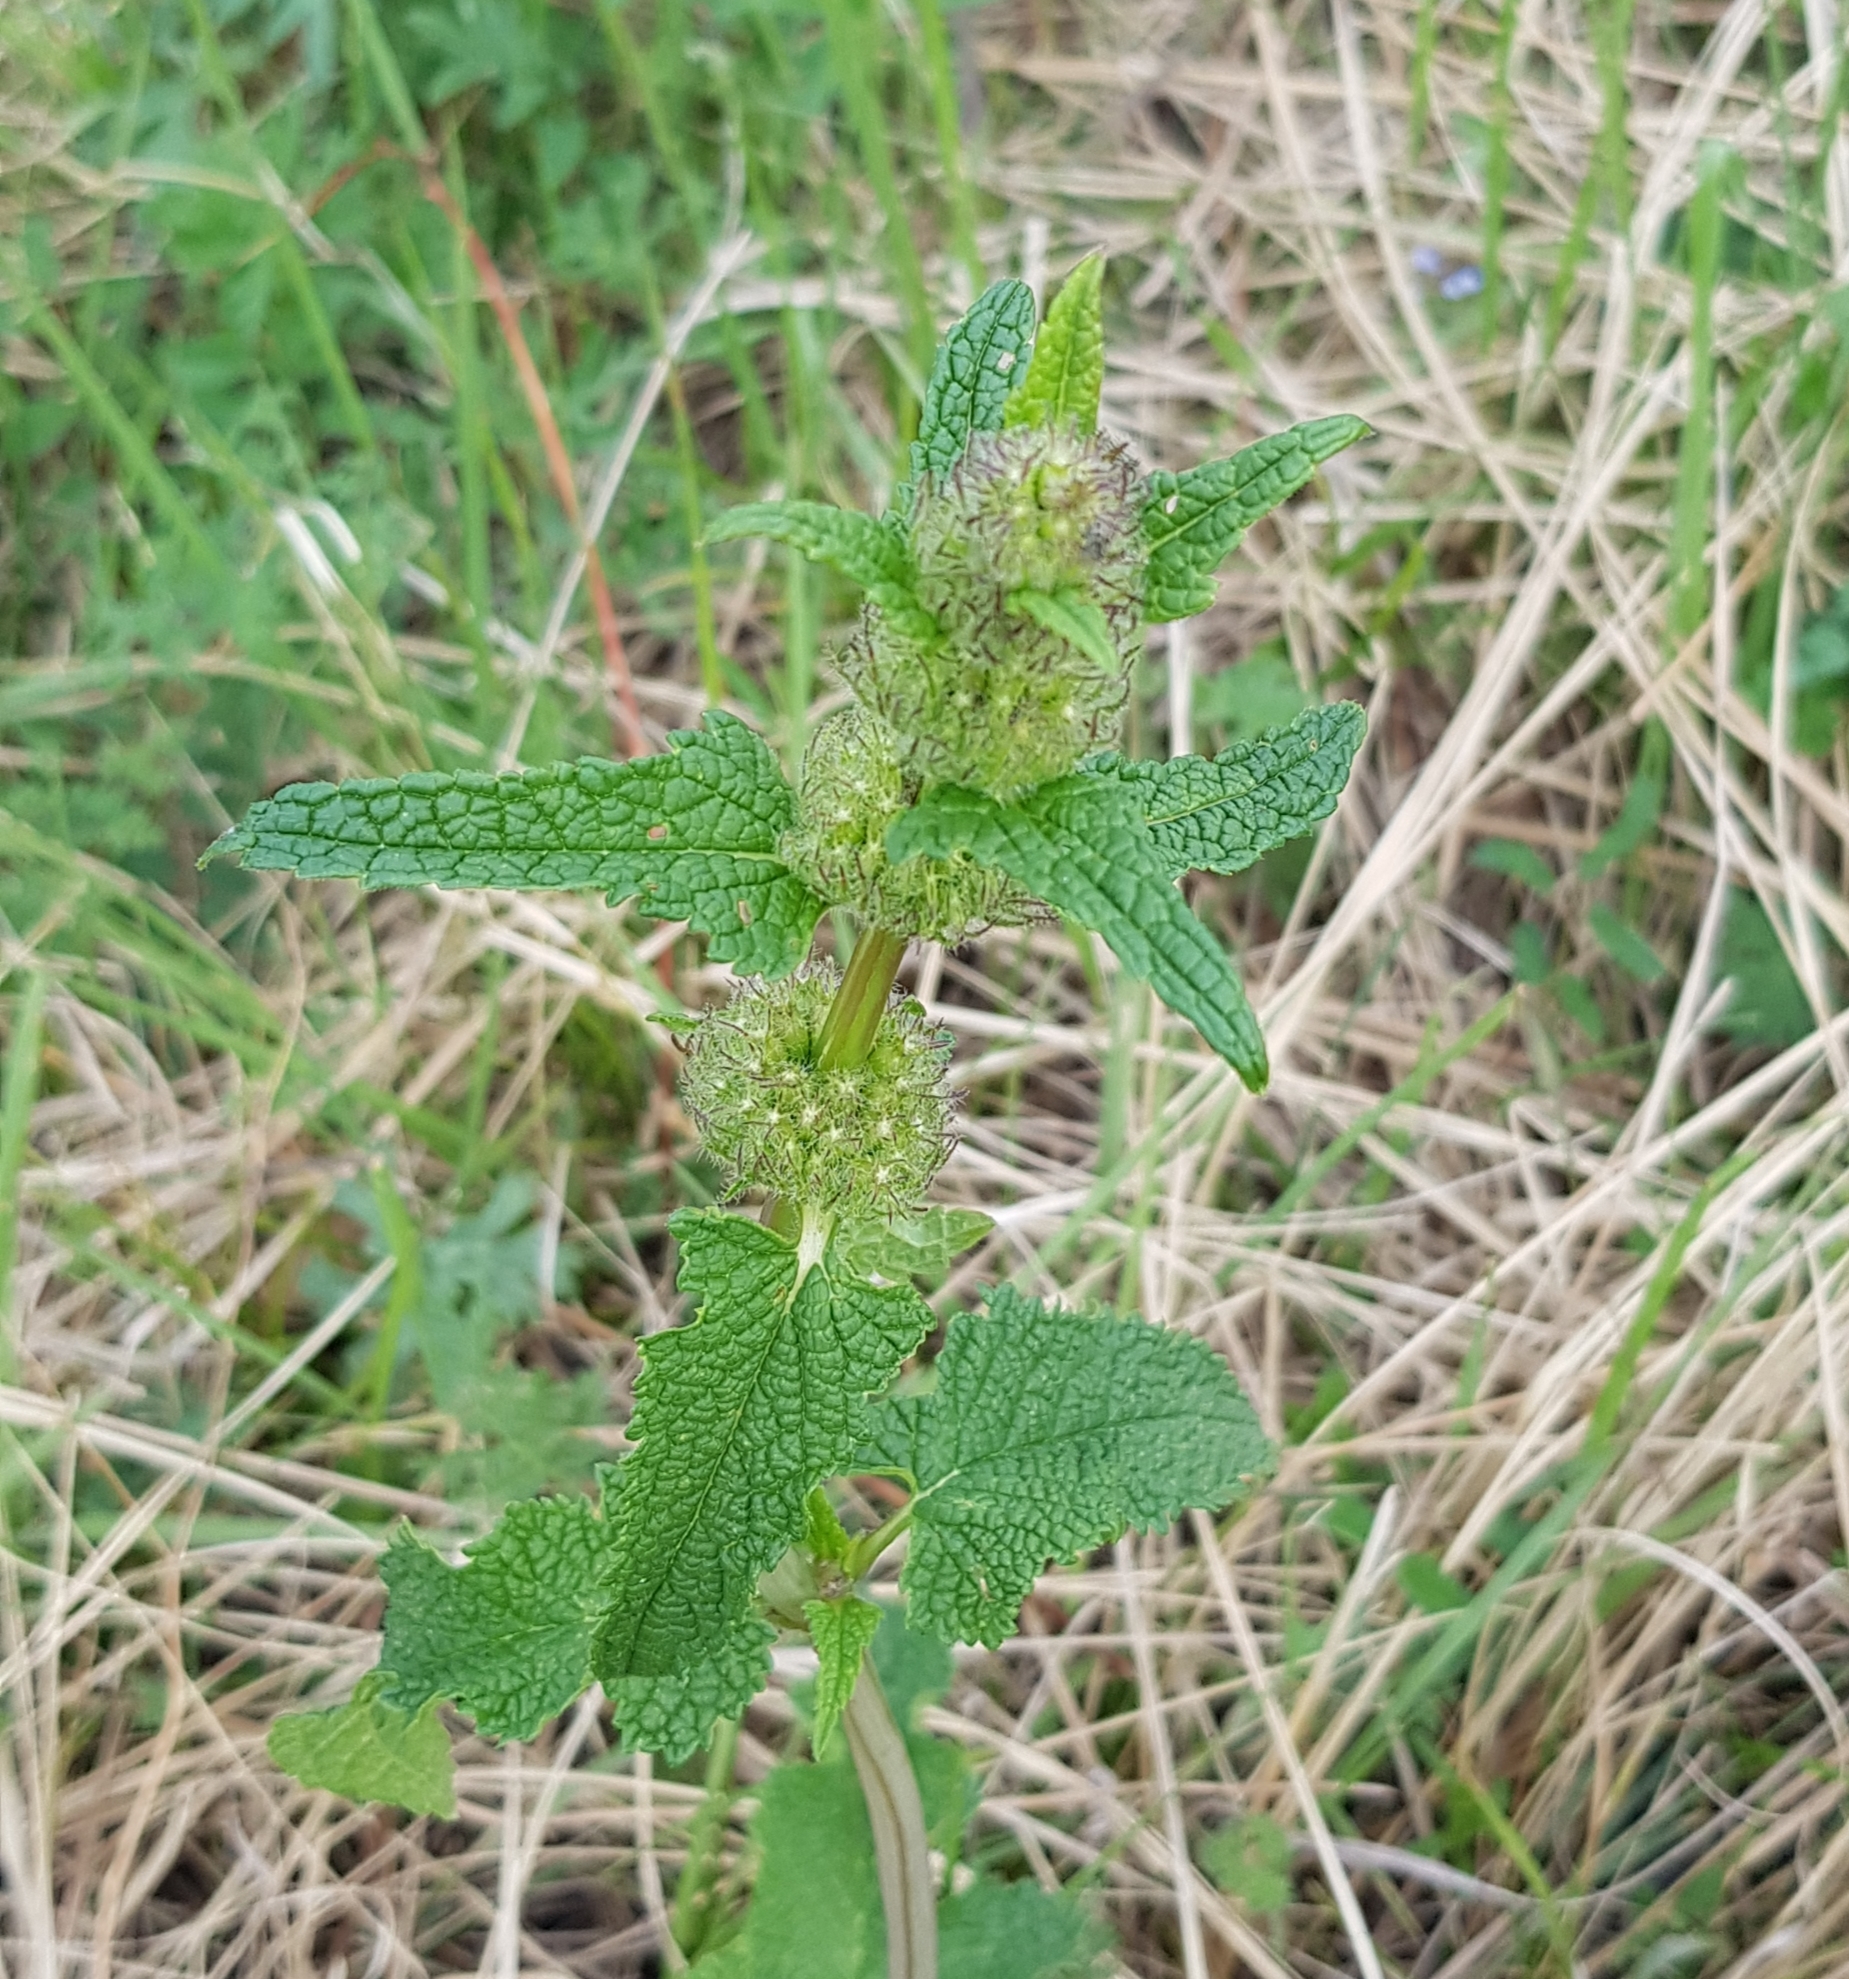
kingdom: Plantae
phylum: Tracheophyta
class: Magnoliopsida
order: Lamiales
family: Lamiaceae
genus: Phlomoides
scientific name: Phlomoides tuberosa
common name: Tuberous jerusalem sage
